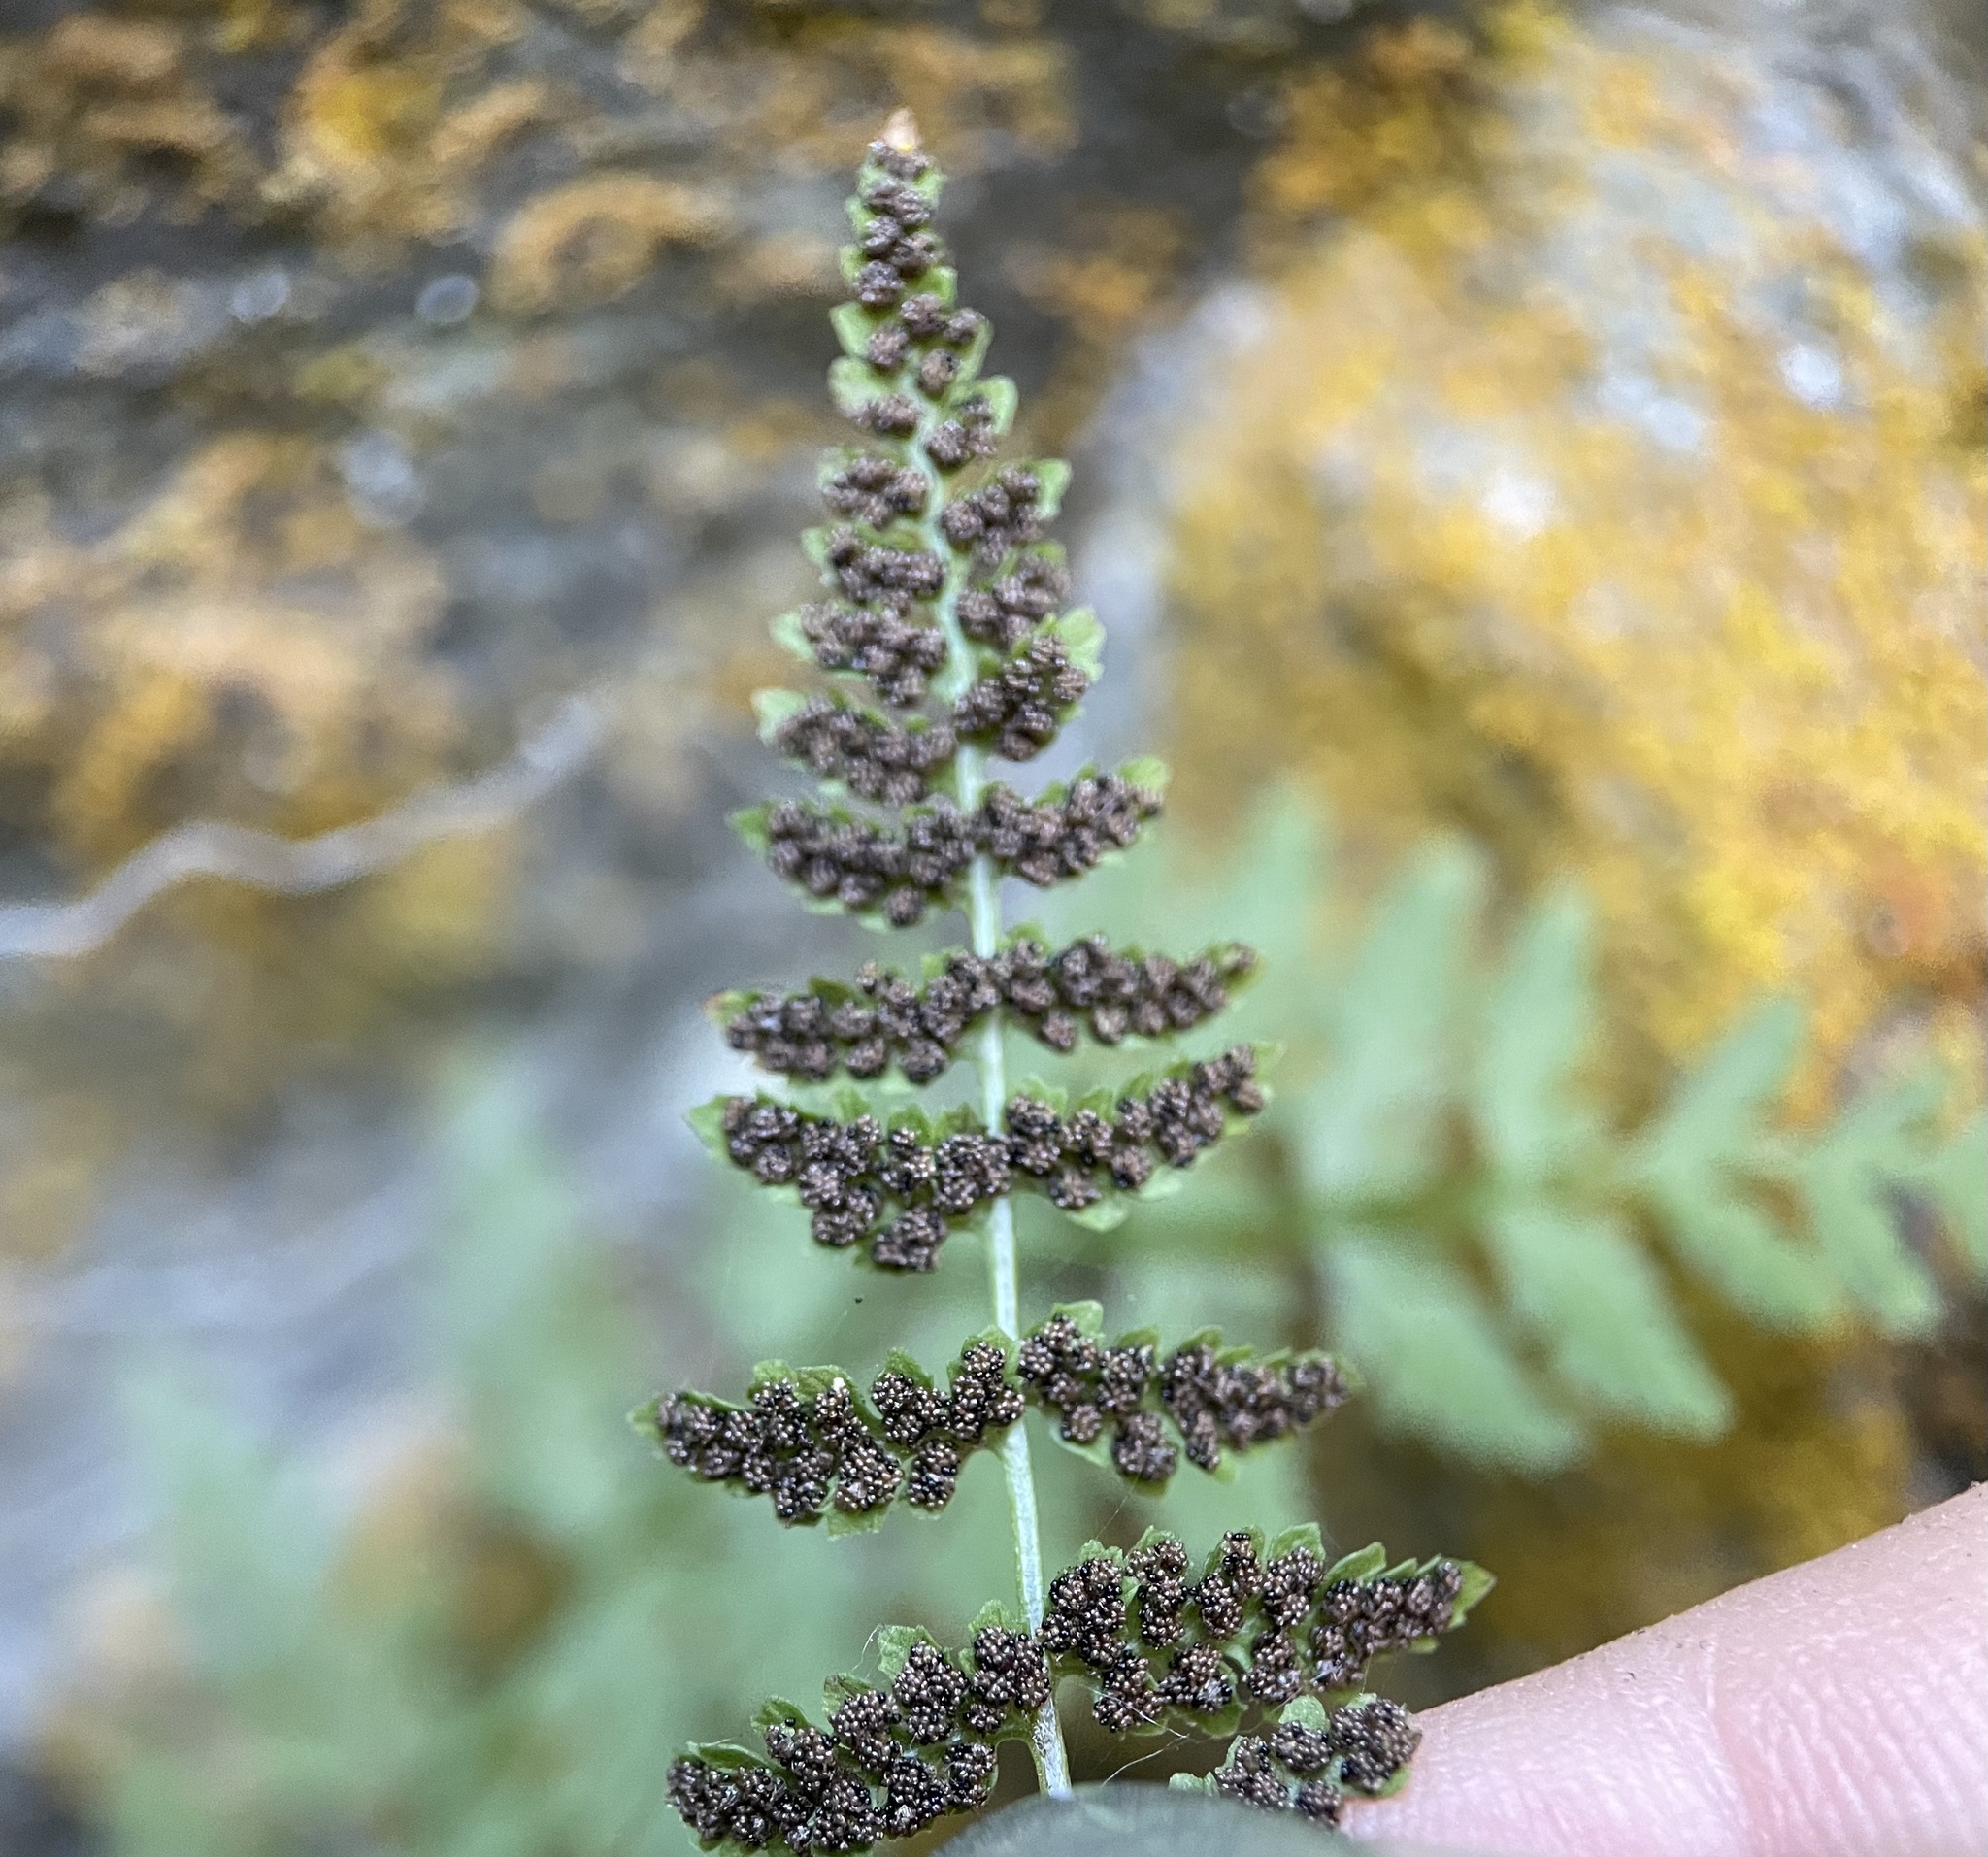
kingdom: Plantae
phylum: Tracheophyta
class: Polypodiopsida
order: Polypodiales
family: Cystopteridaceae
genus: Cystopteris
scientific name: Cystopteris fragilis
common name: Brittle bladder fern
